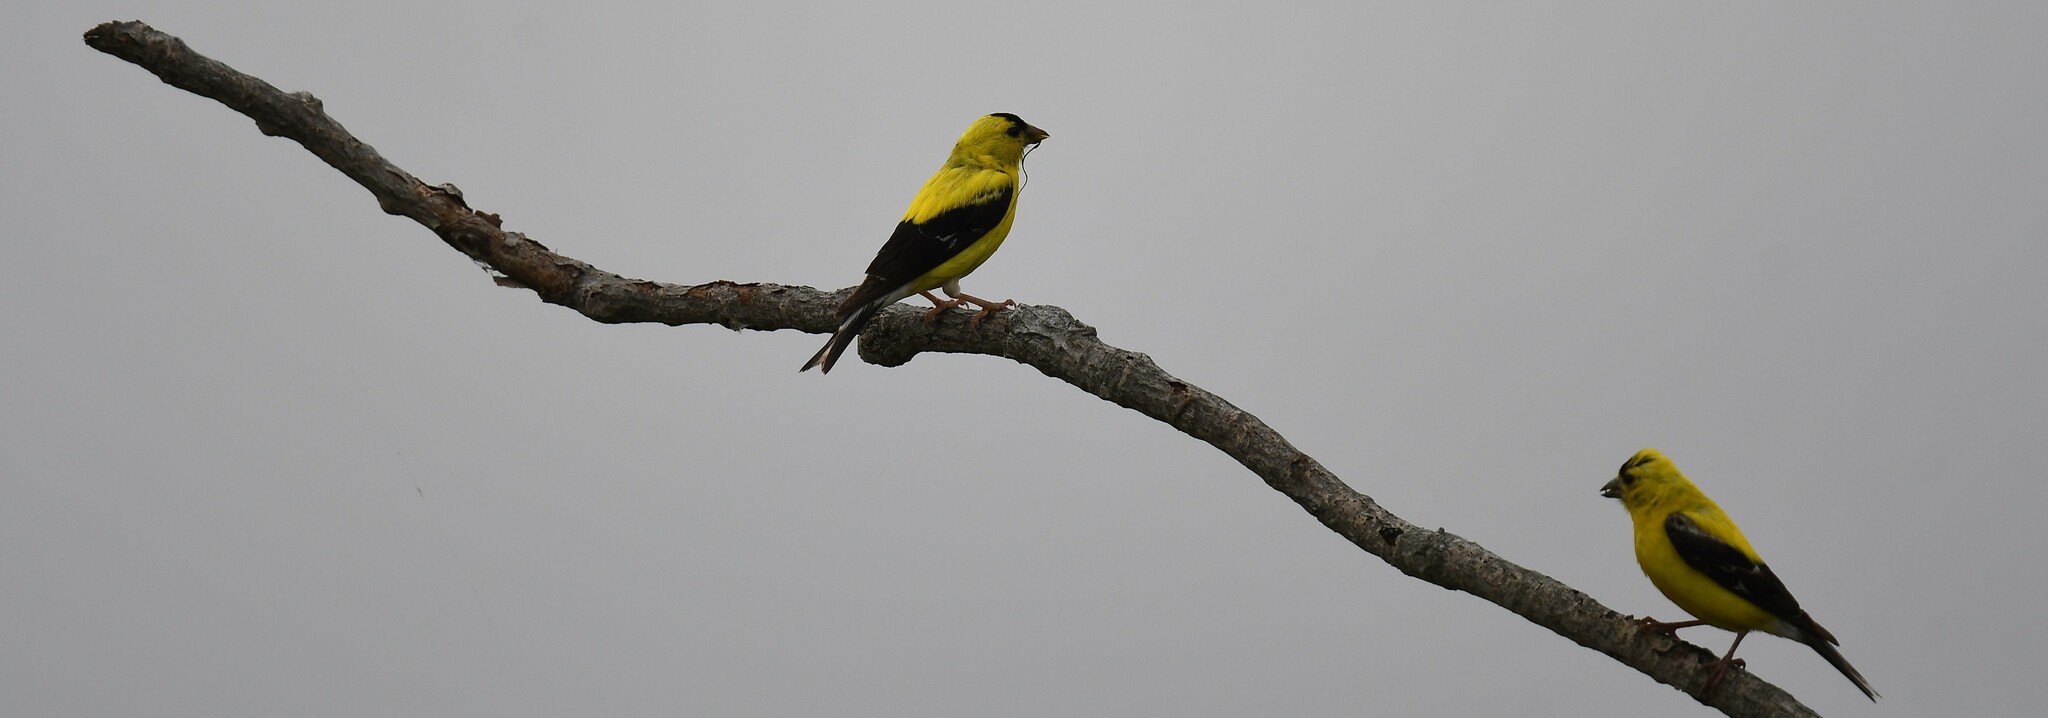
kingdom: Animalia
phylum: Chordata
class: Aves
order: Passeriformes
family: Fringillidae
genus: Spinus
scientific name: Spinus tristis
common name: American goldfinch
